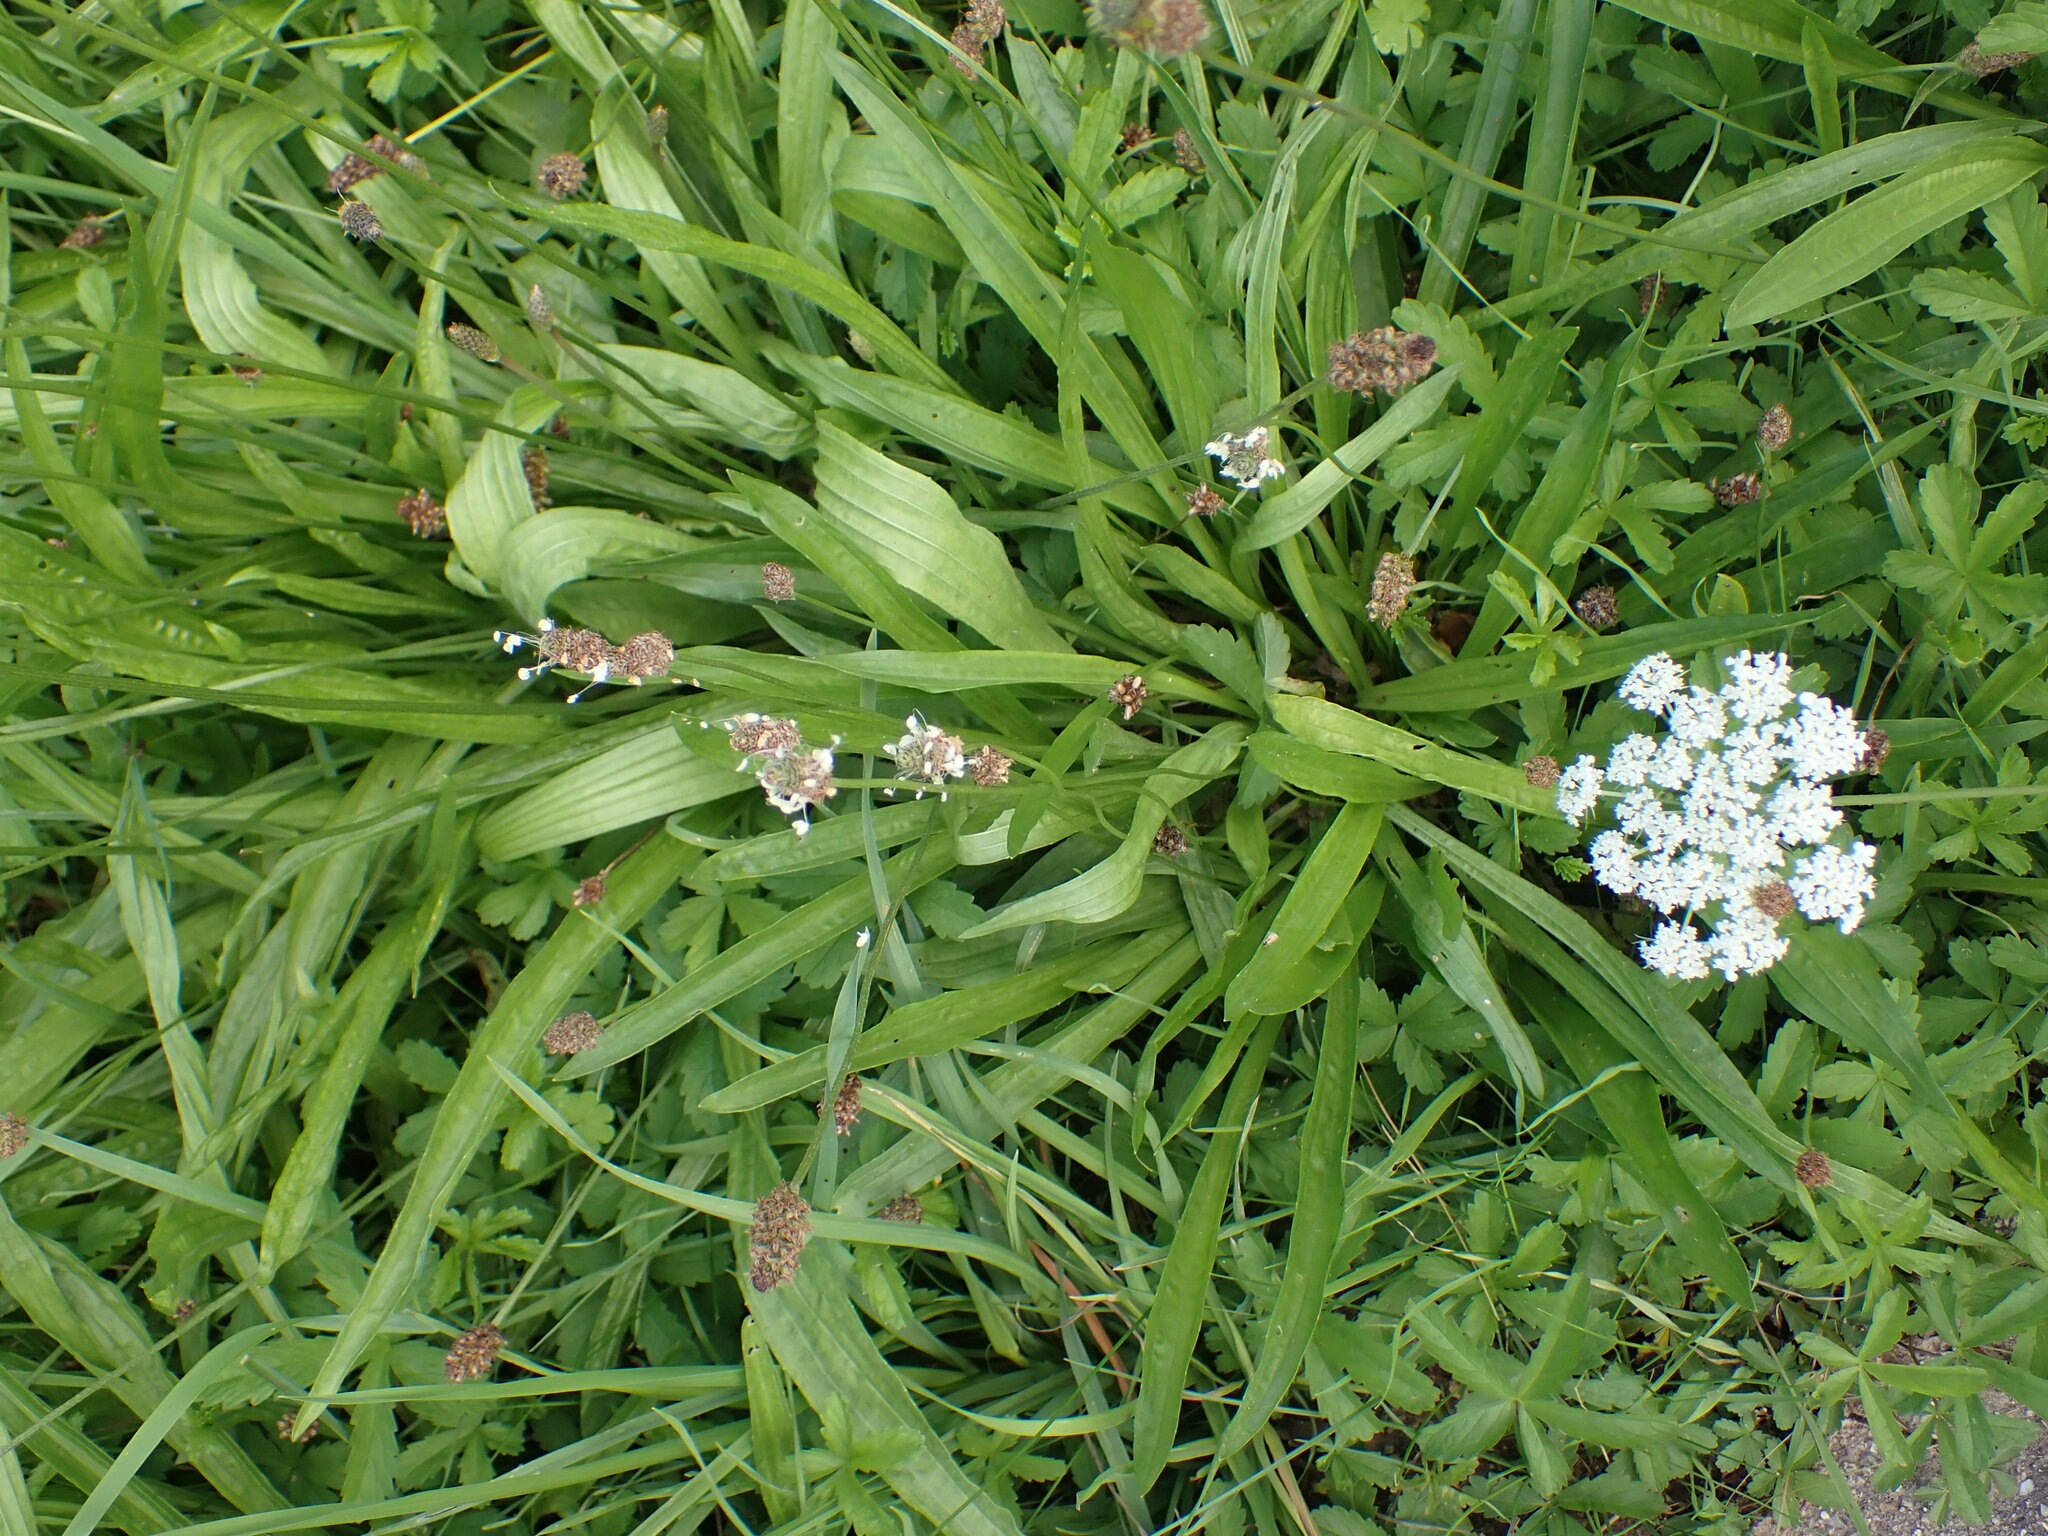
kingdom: Plantae
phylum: Tracheophyta
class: Magnoliopsida
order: Lamiales
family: Plantaginaceae
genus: Plantago
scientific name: Plantago lanceolata
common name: Ribwort plantain
